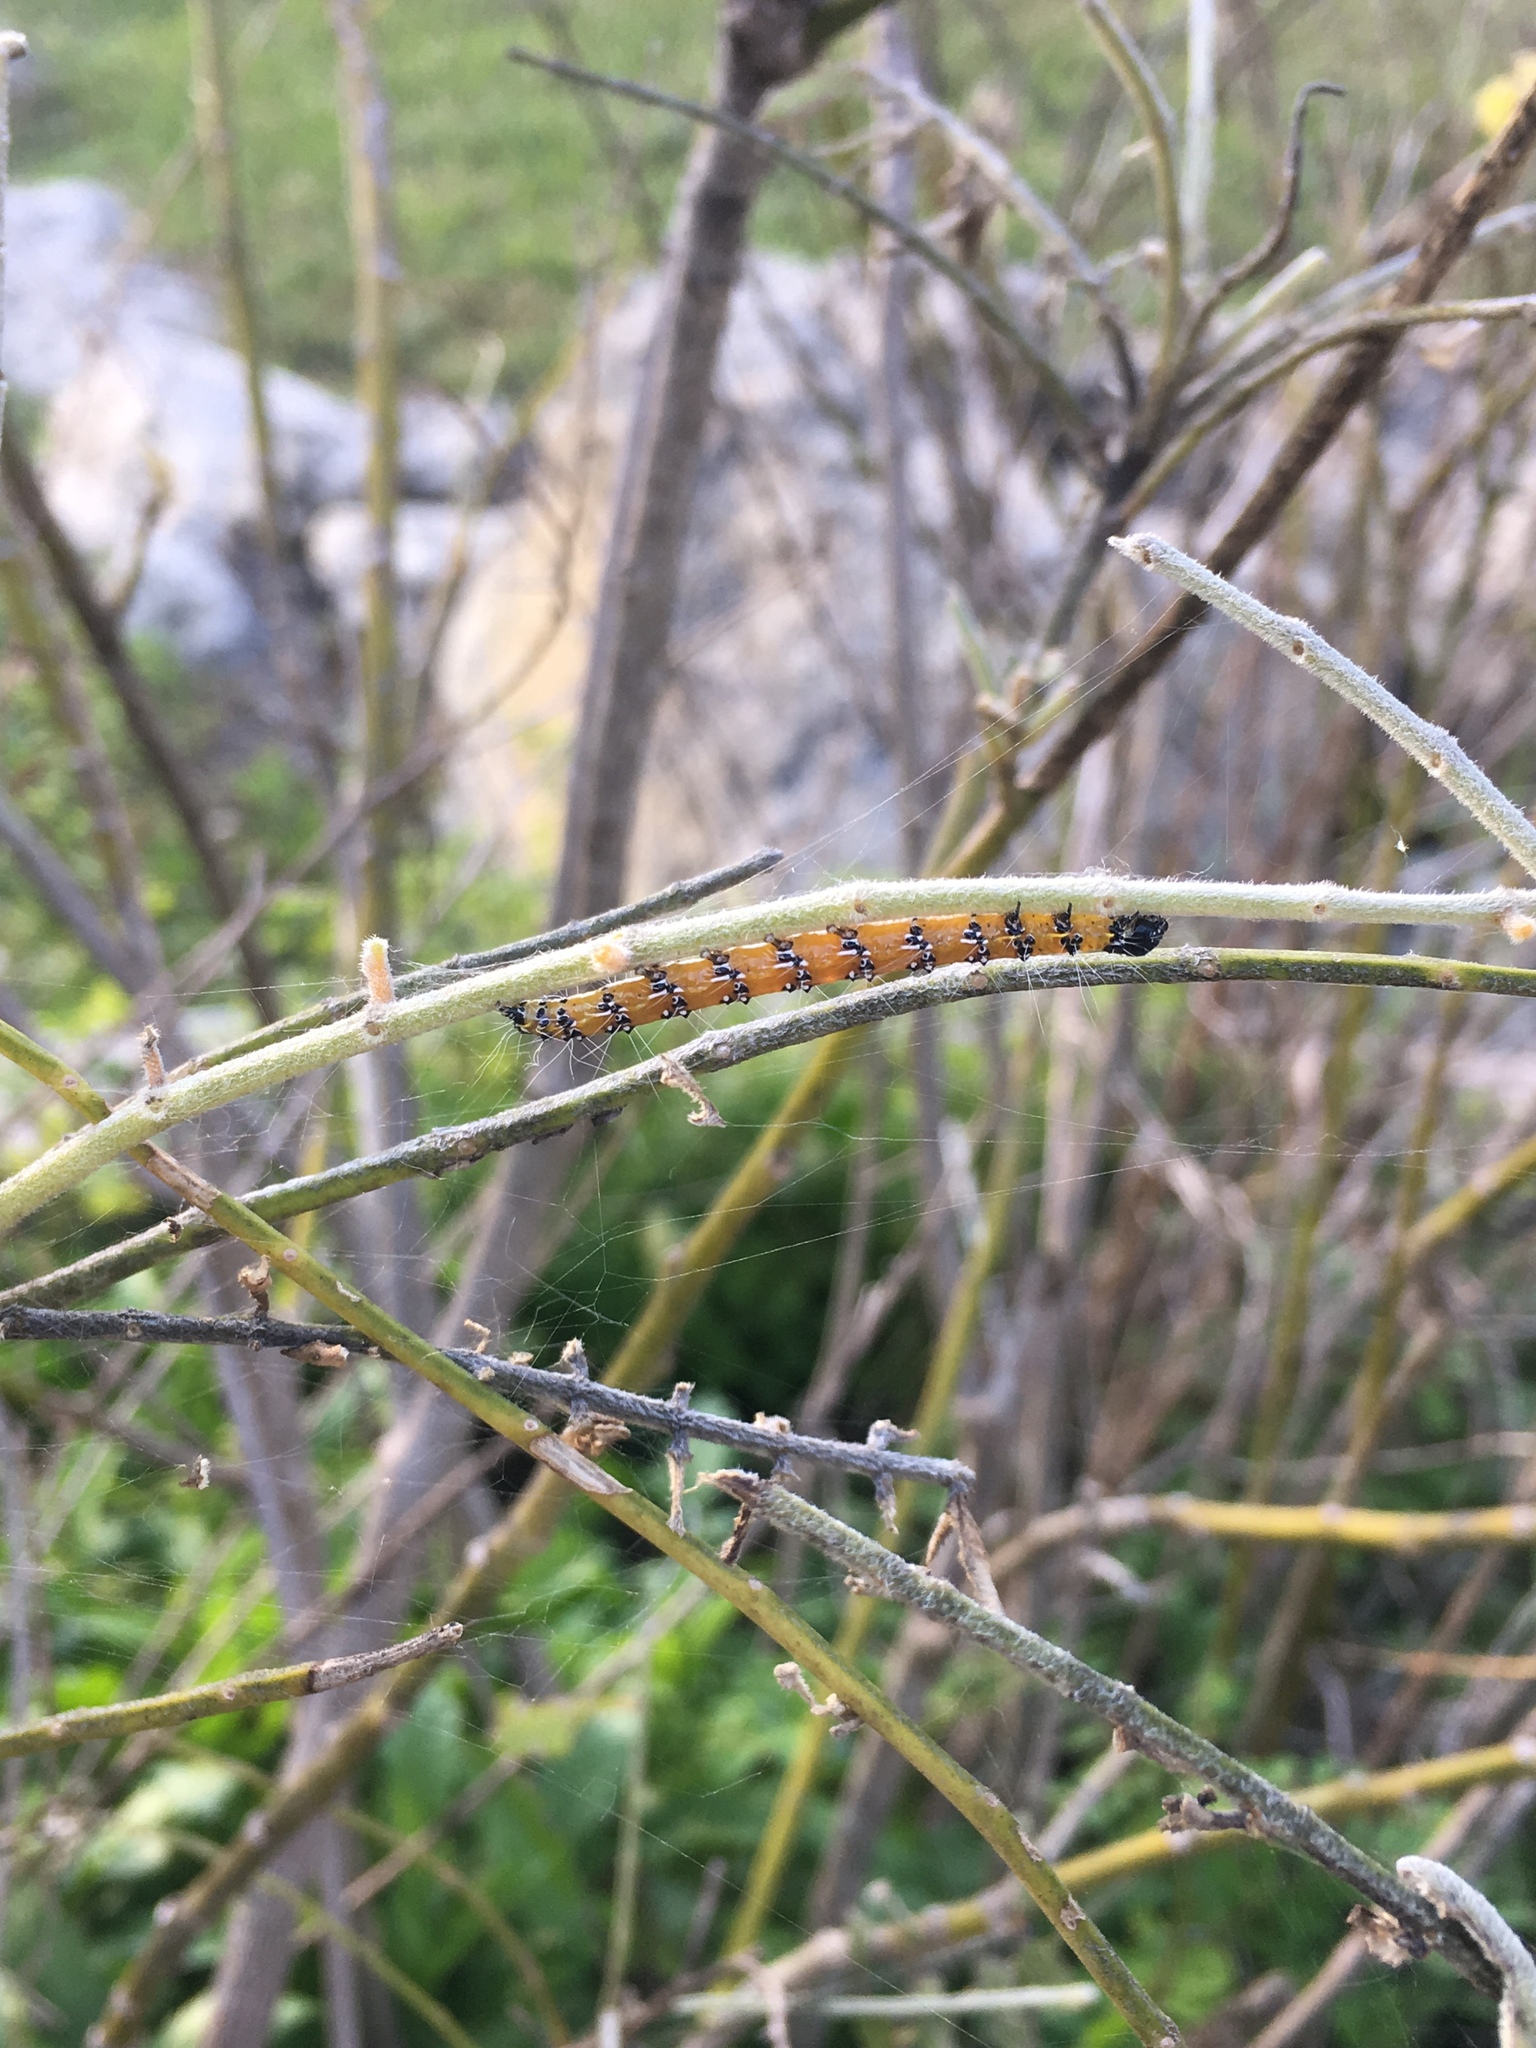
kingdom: Animalia
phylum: Arthropoda
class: Insecta
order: Lepidoptera
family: Crambidae
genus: Uresiphita
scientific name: Uresiphita reversalis
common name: Genista broom moth
